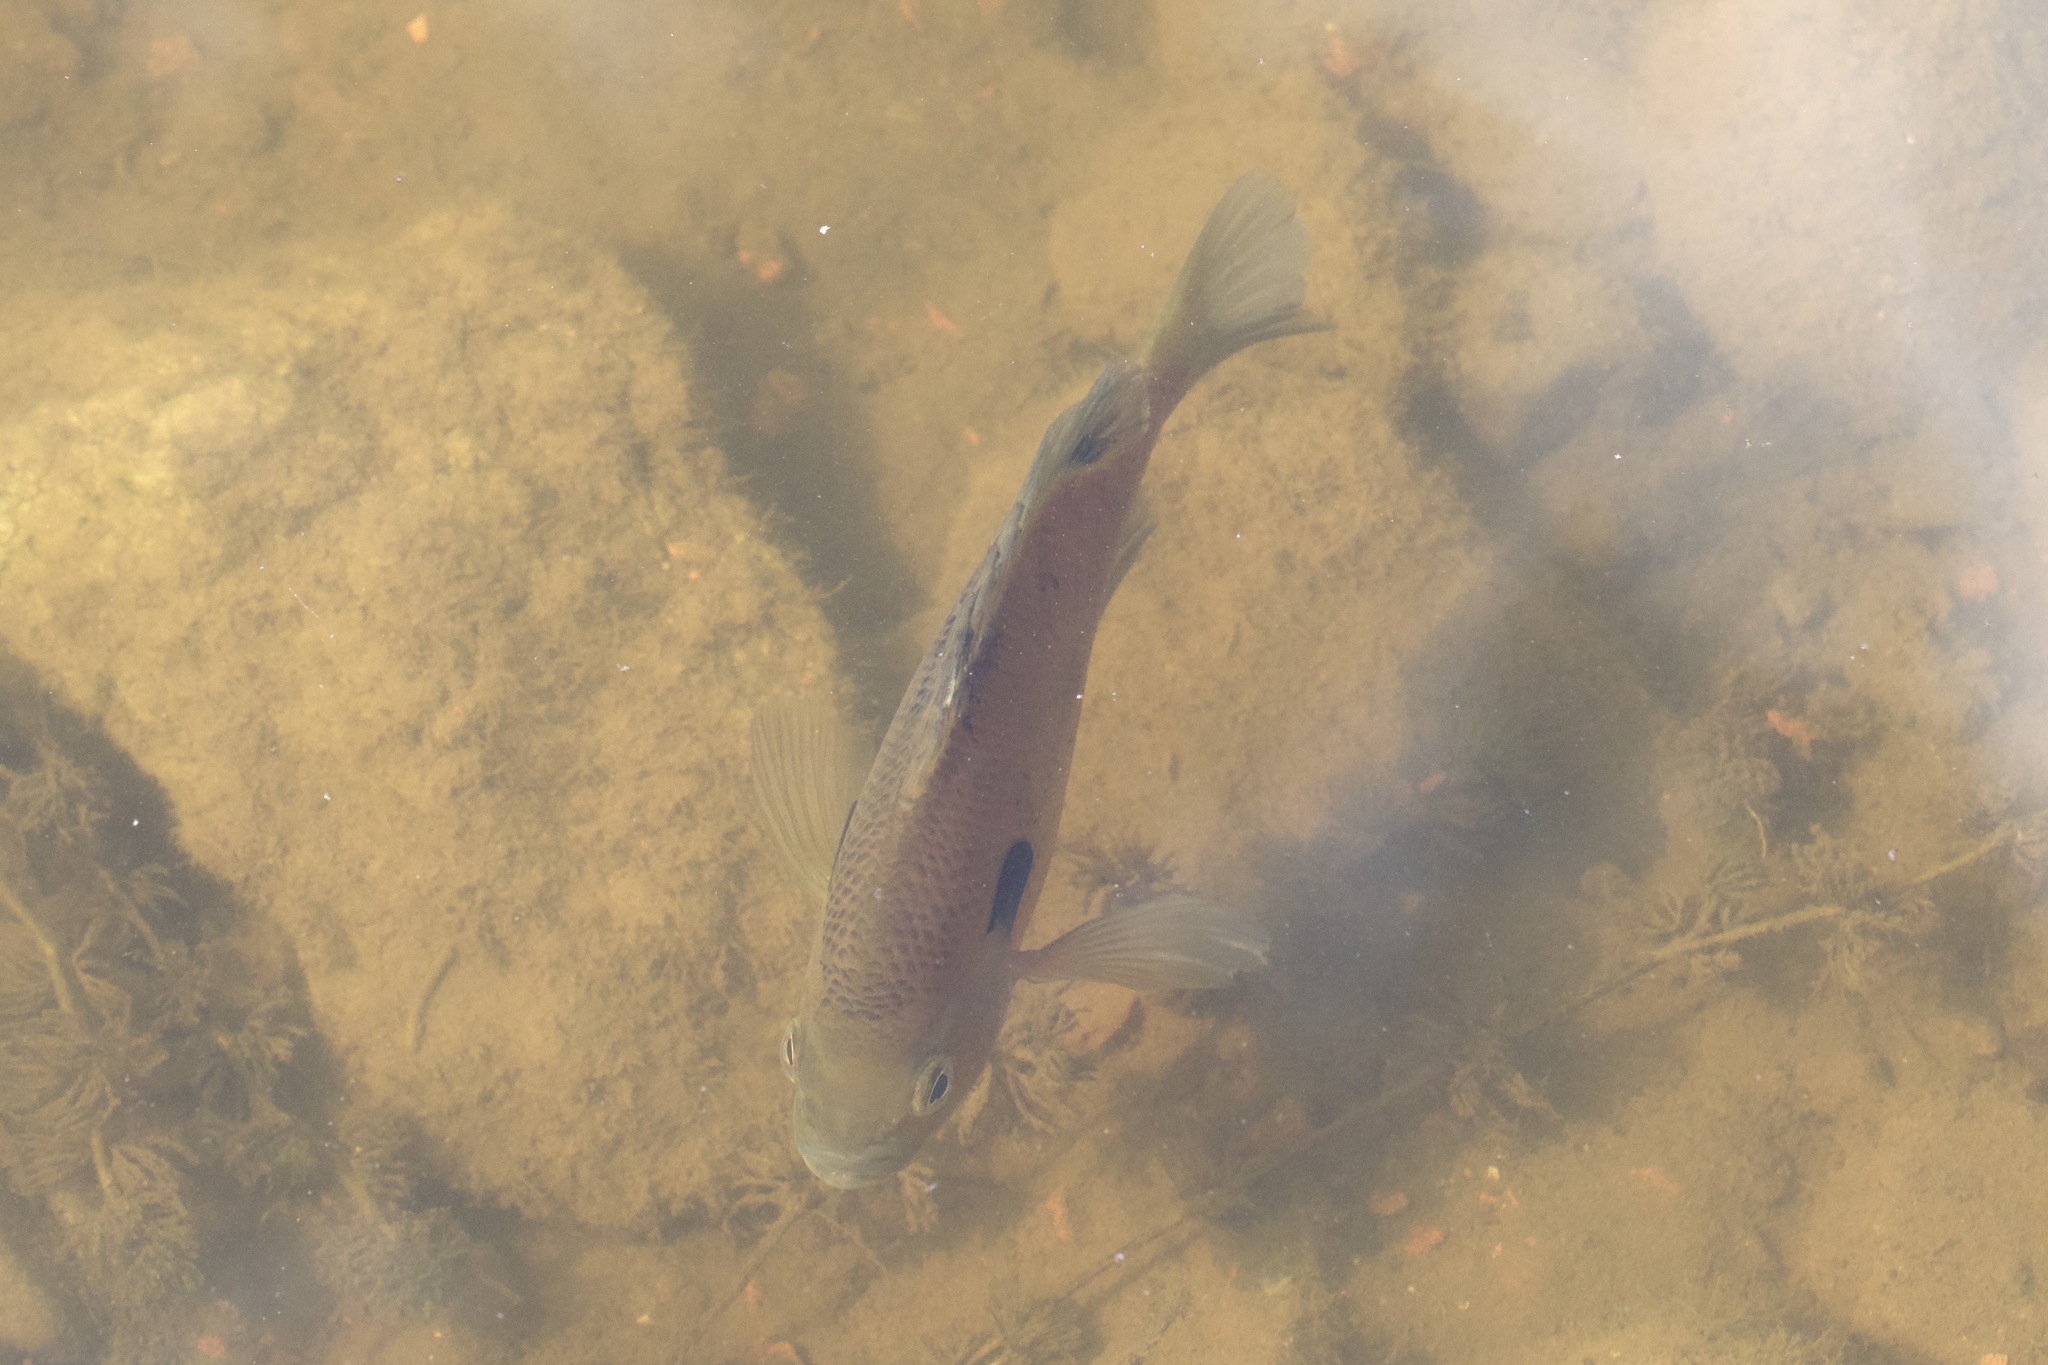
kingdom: Animalia
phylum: Chordata
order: Perciformes
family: Centrarchidae
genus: Lepomis
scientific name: Lepomis macrochirus
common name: Bluegill
